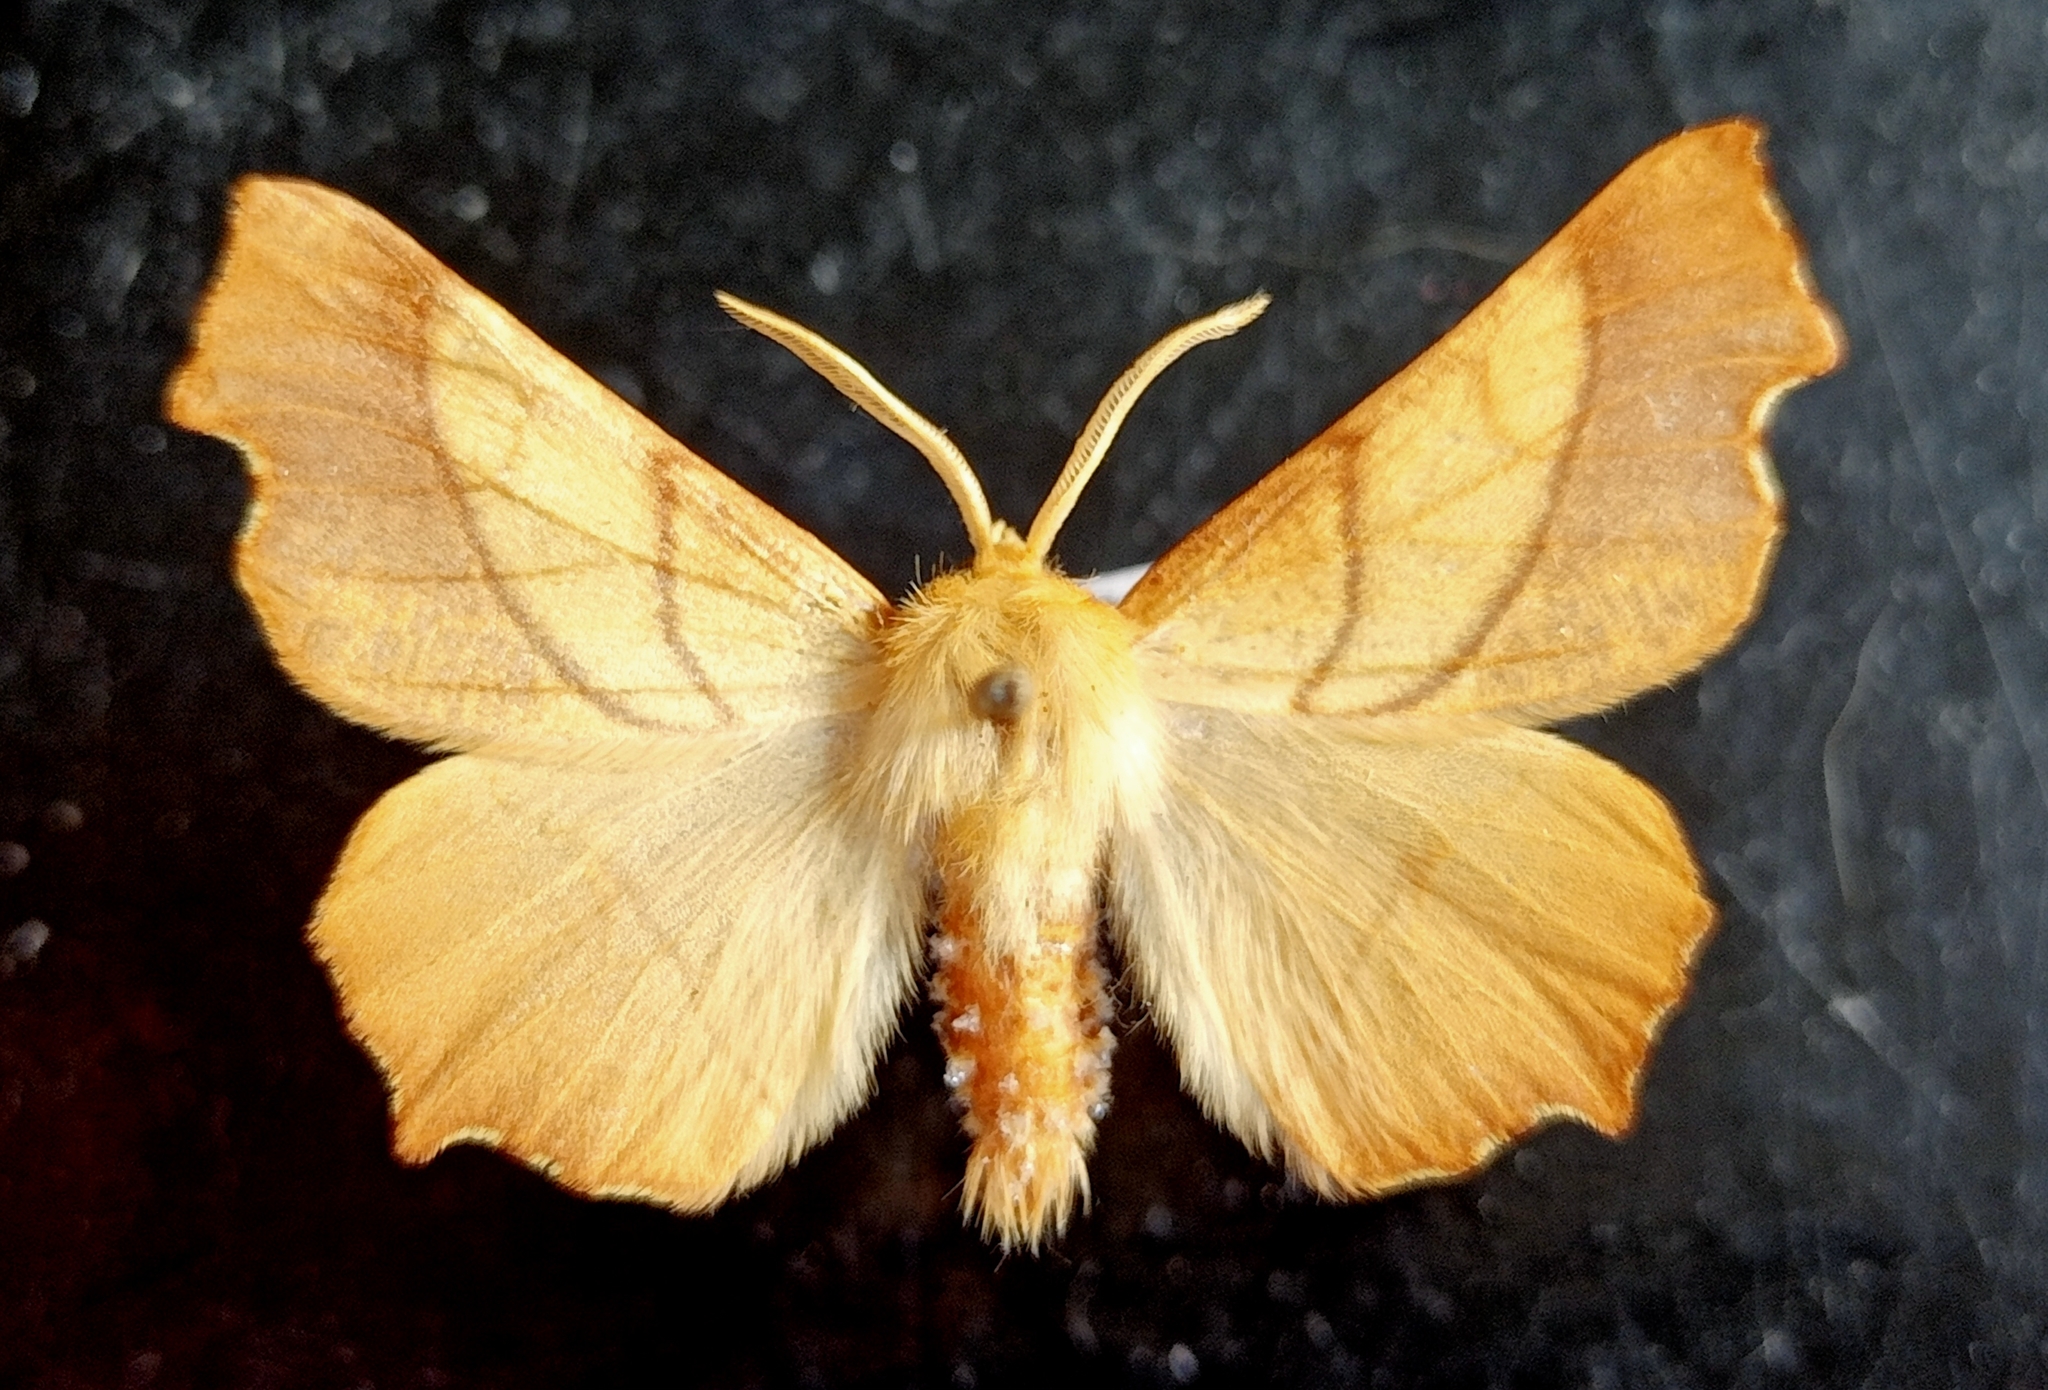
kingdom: Animalia
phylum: Arthropoda
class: Insecta
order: Lepidoptera
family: Geometridae
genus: Ennomos
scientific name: Ennomos fuscantaria
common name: Dusky thorn
